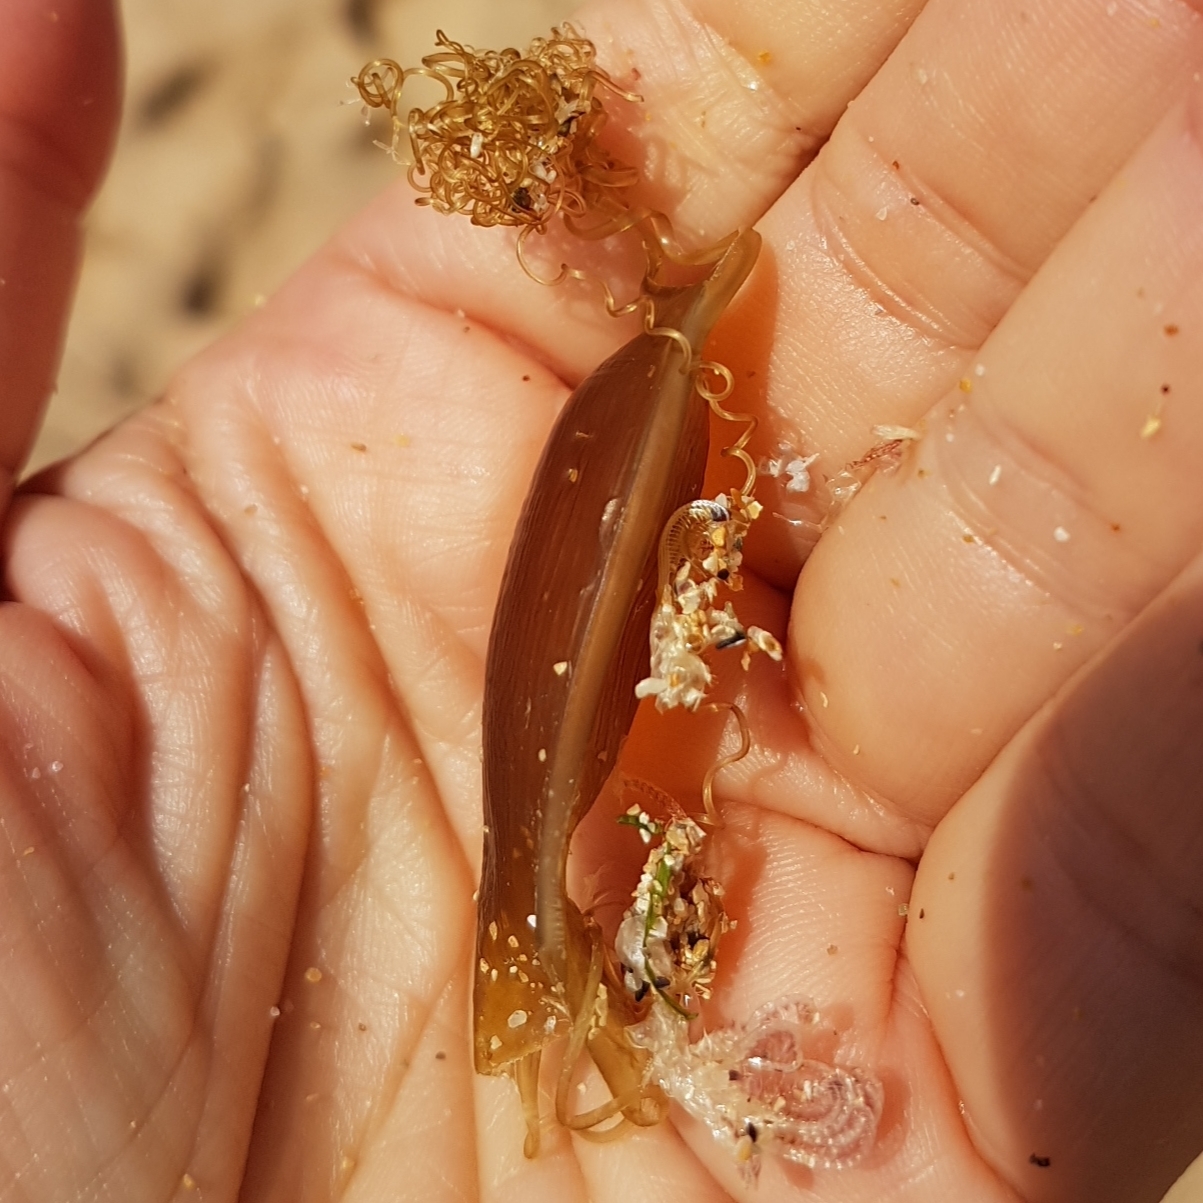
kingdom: Animalia
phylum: Chordata
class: Elasmobranchii
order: Carcharhiniformes
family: Scyliorhinidae
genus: Scyliorhinus
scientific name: Scyliorhinus canicula
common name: Lesser spotted dogfish
